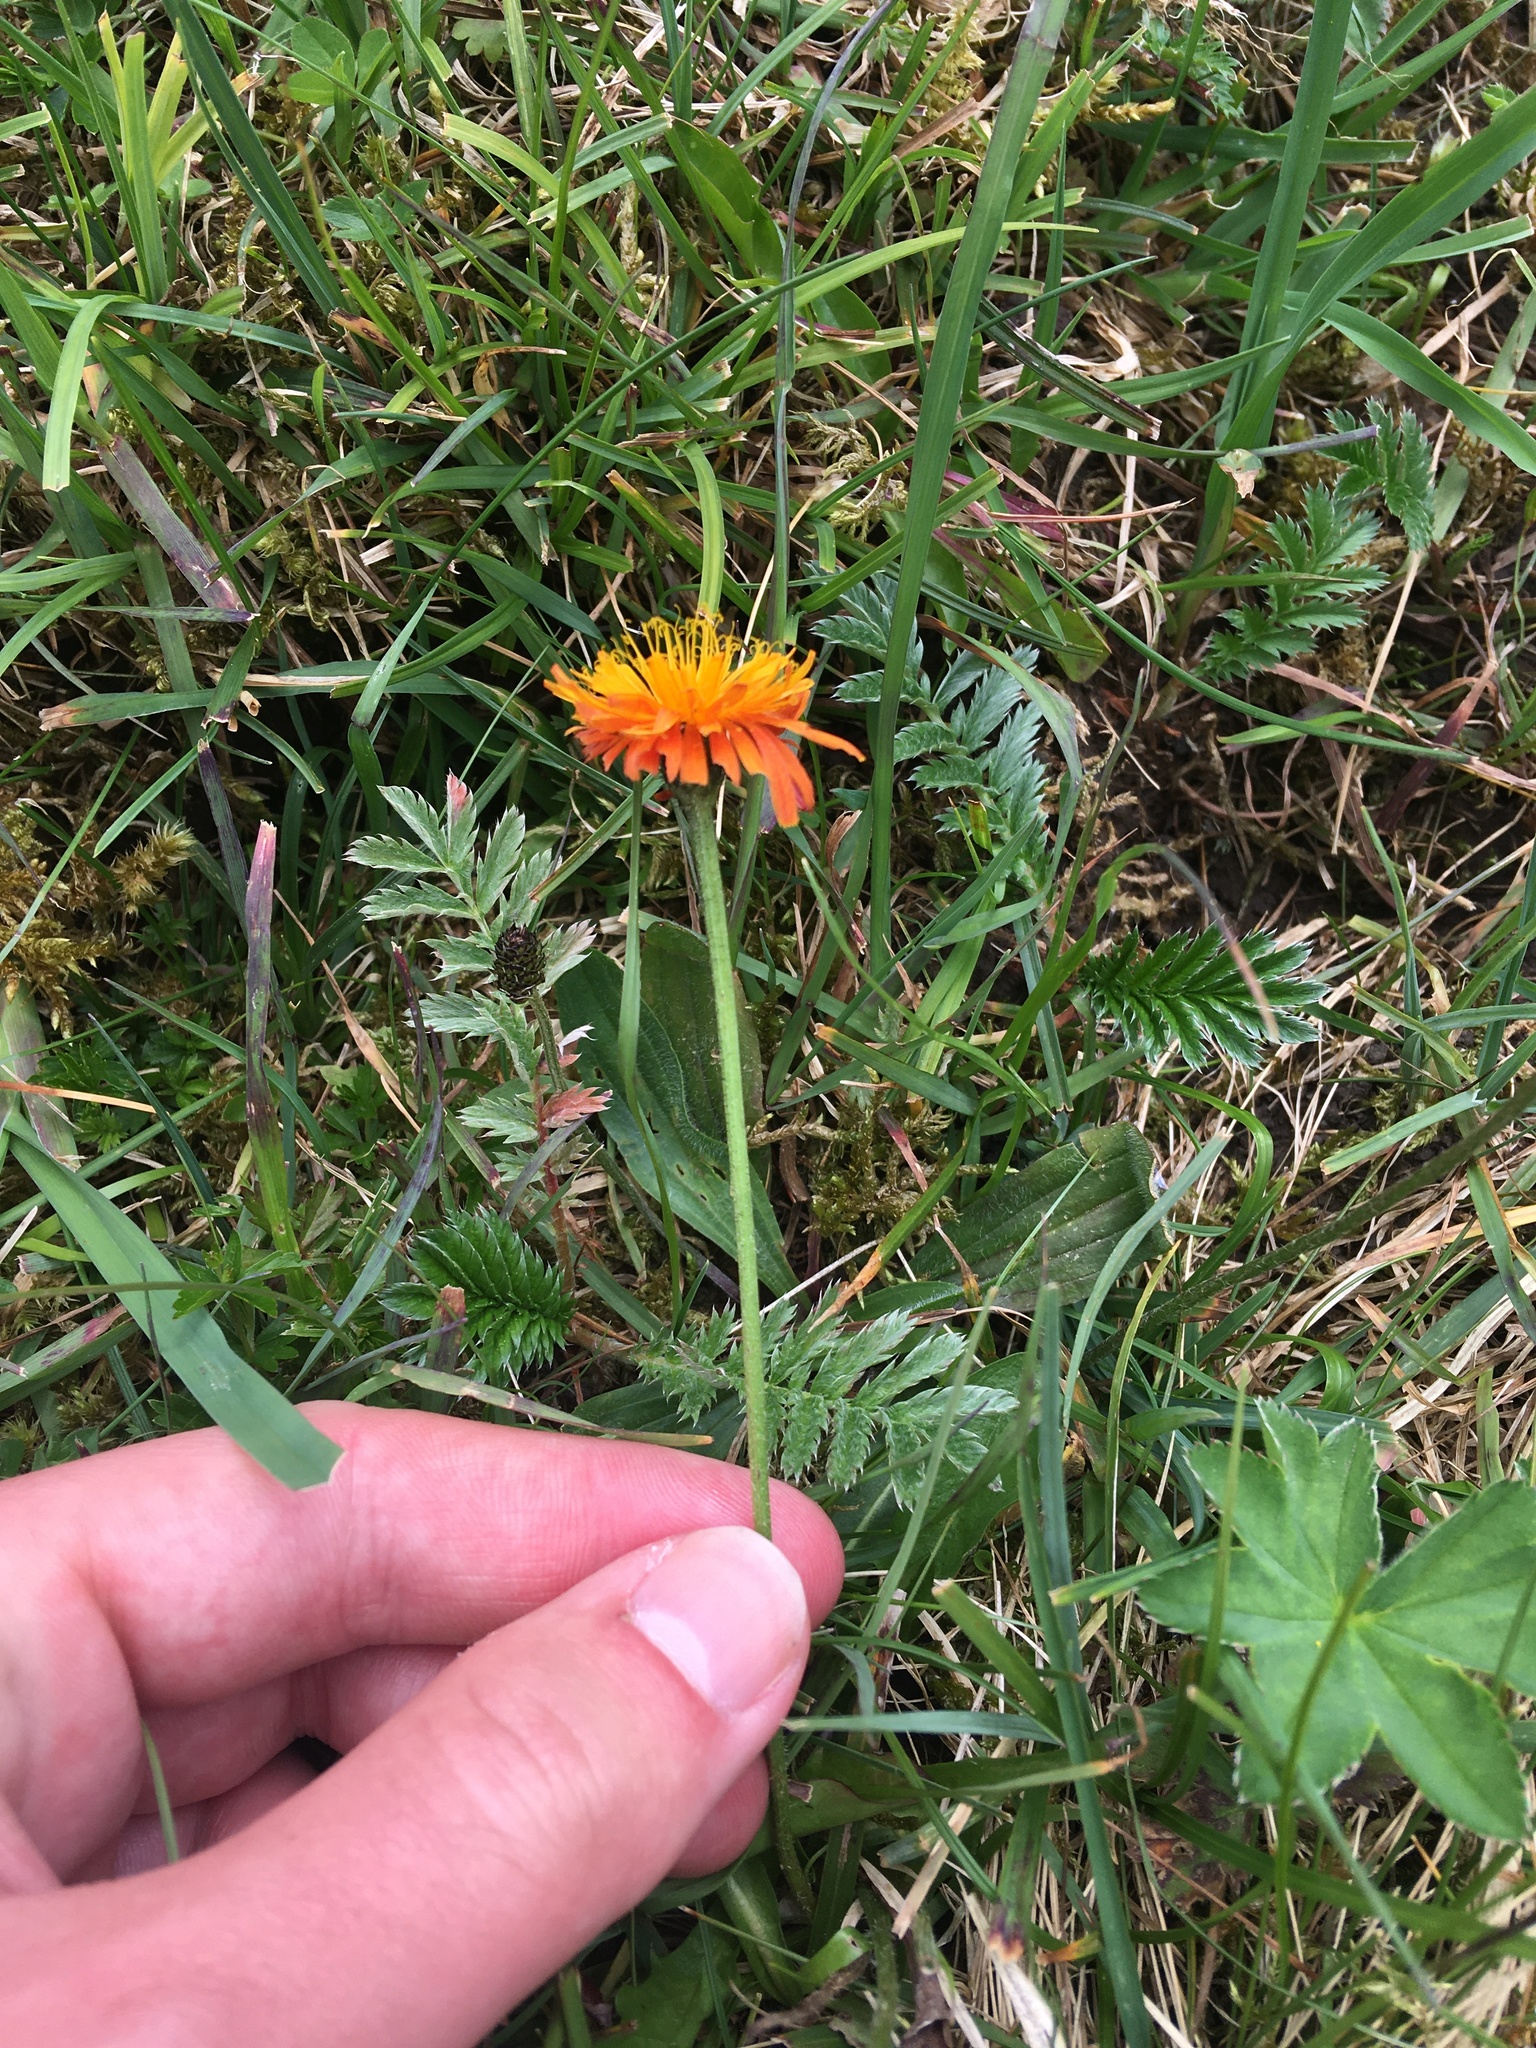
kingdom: Plantae
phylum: Tracheophyta
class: Magnoliopsida
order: Asterales
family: Asteraceae
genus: Crepis
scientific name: Crepis aurea
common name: Golden hawk's-beard
